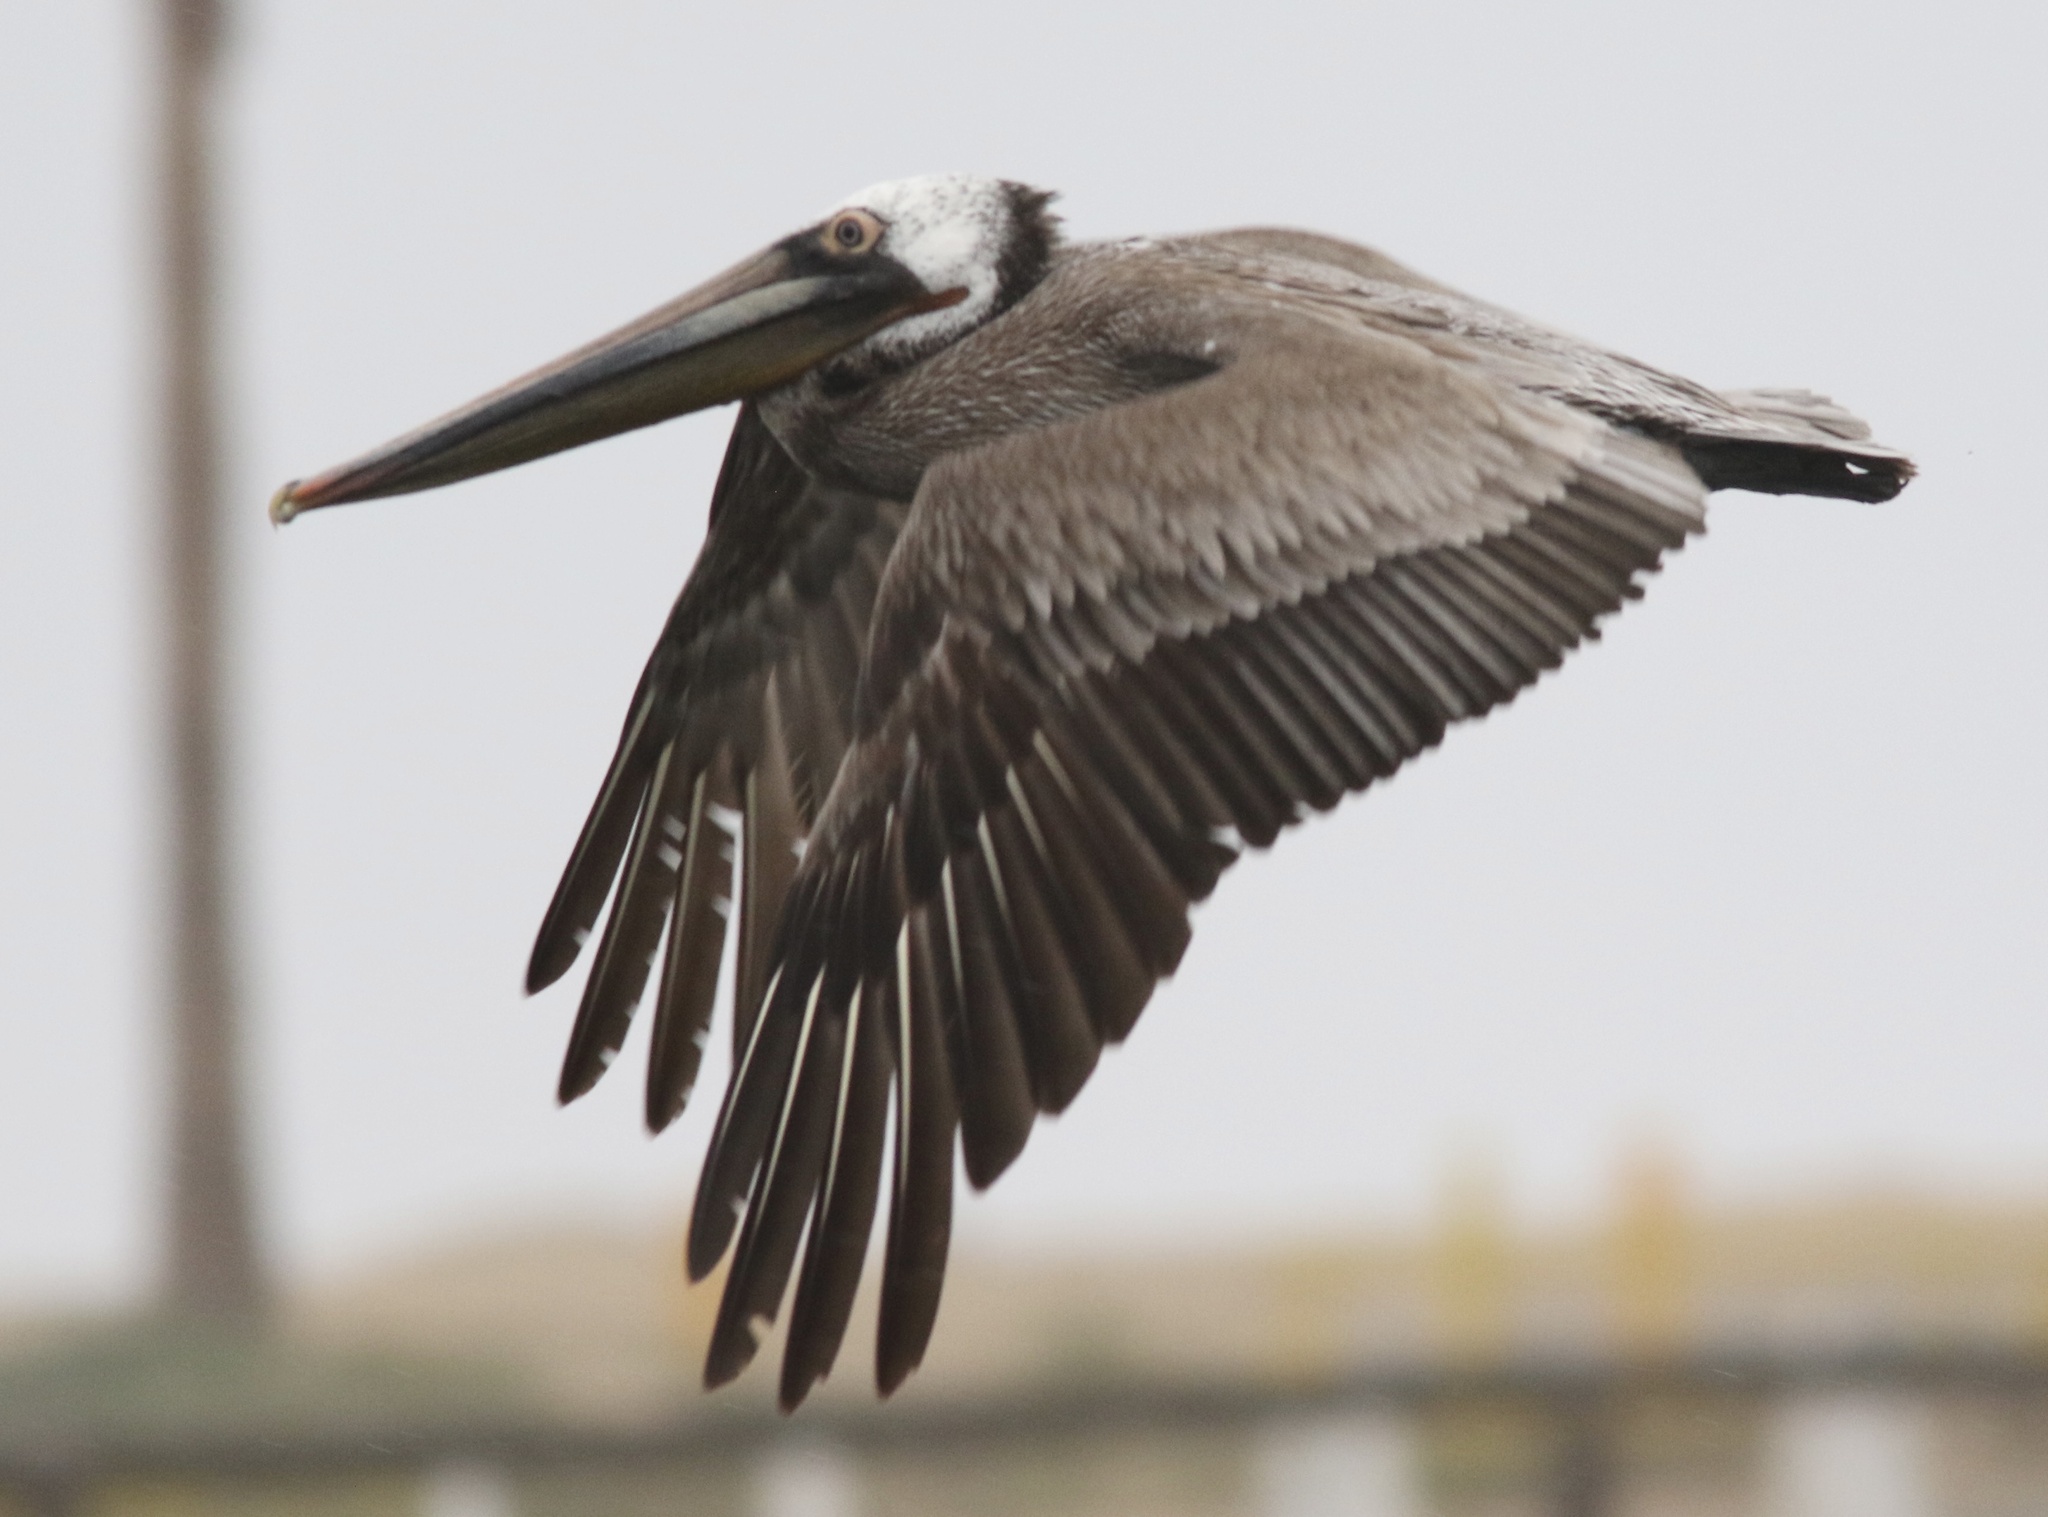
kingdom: Animalia
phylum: Chordata
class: Aves
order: Pelecaniformes
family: Pelecanidae
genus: Pelecanus
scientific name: Pelecanus occidentalis
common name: Brown pelican
